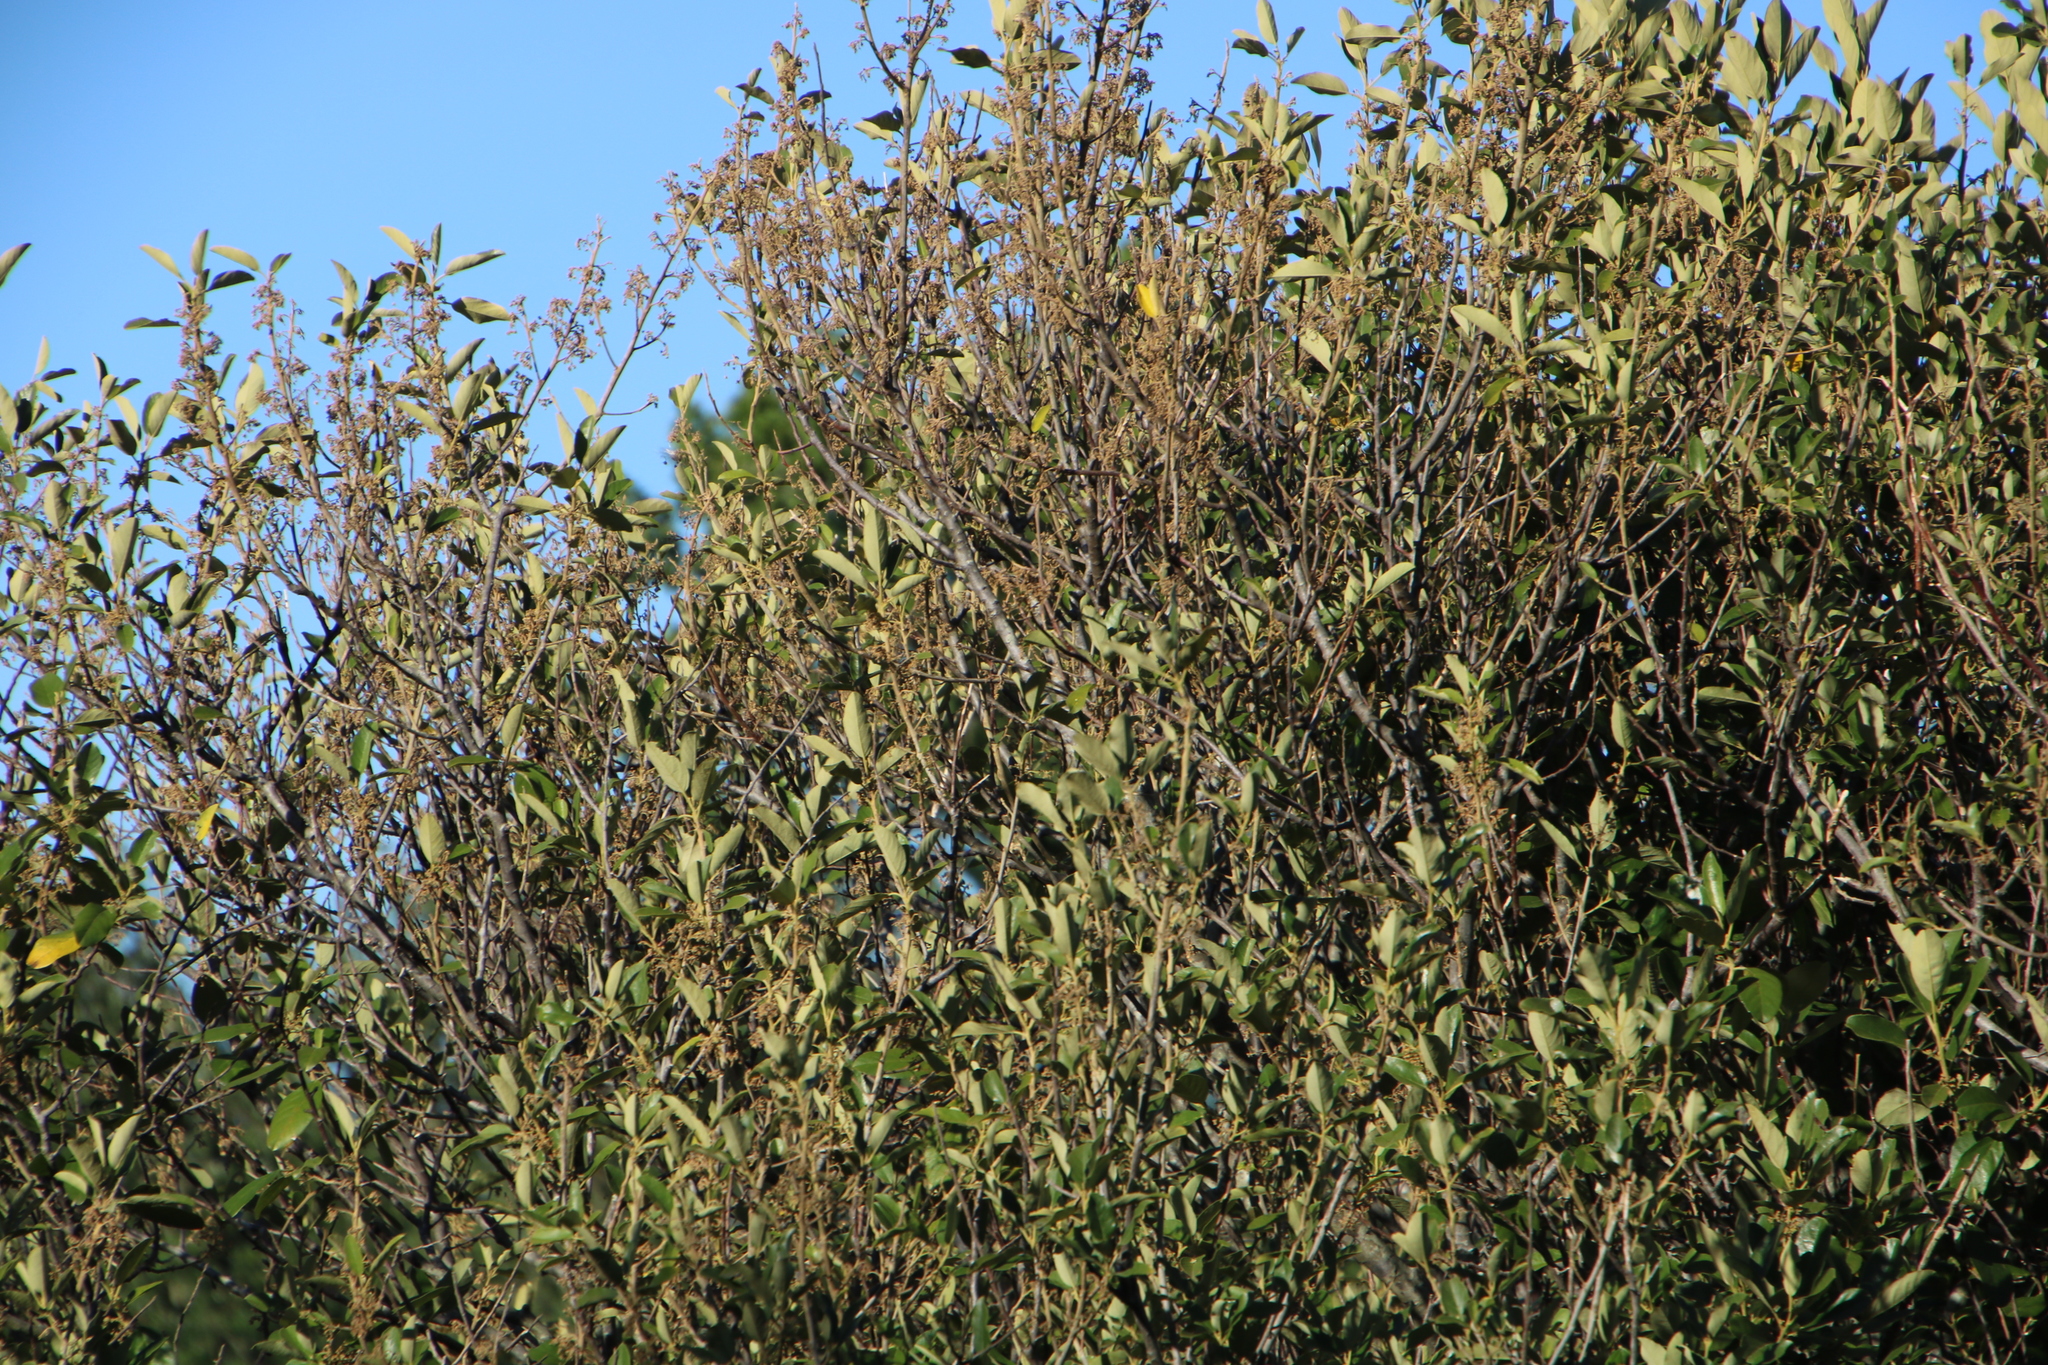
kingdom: Plantae
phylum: Tracheophyta
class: Magnoliopsida
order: Malpighiales
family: Achariaceae
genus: Kiggelaria
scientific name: Kiggelaria africana
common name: Wild peach
